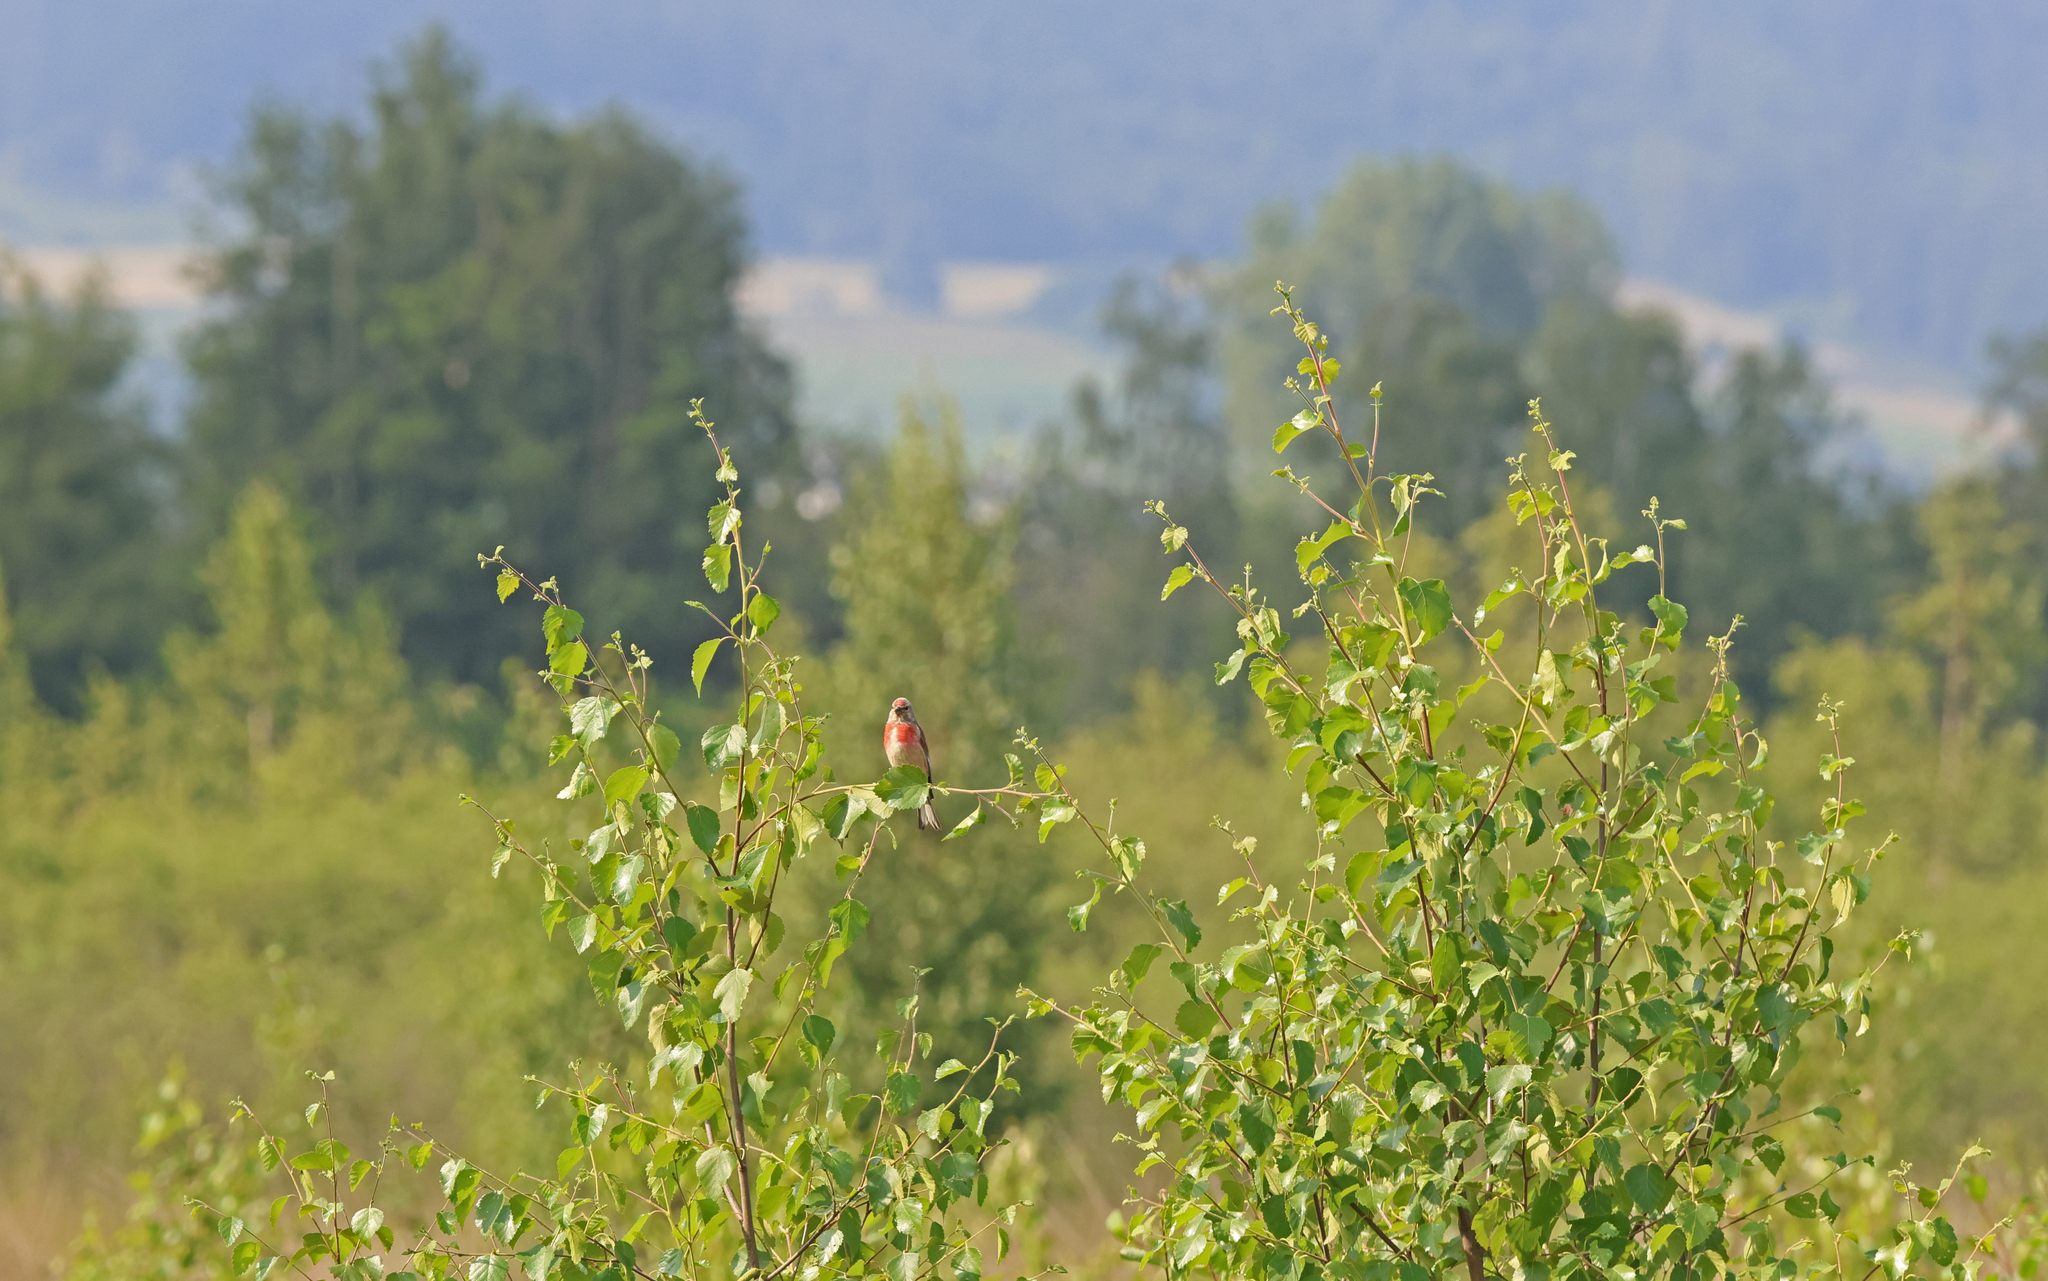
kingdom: Animalia
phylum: Chordata
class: Aves
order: Passeriformes
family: Fringillidae
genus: Linaria
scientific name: Linaria cannabina
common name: Common linnet
